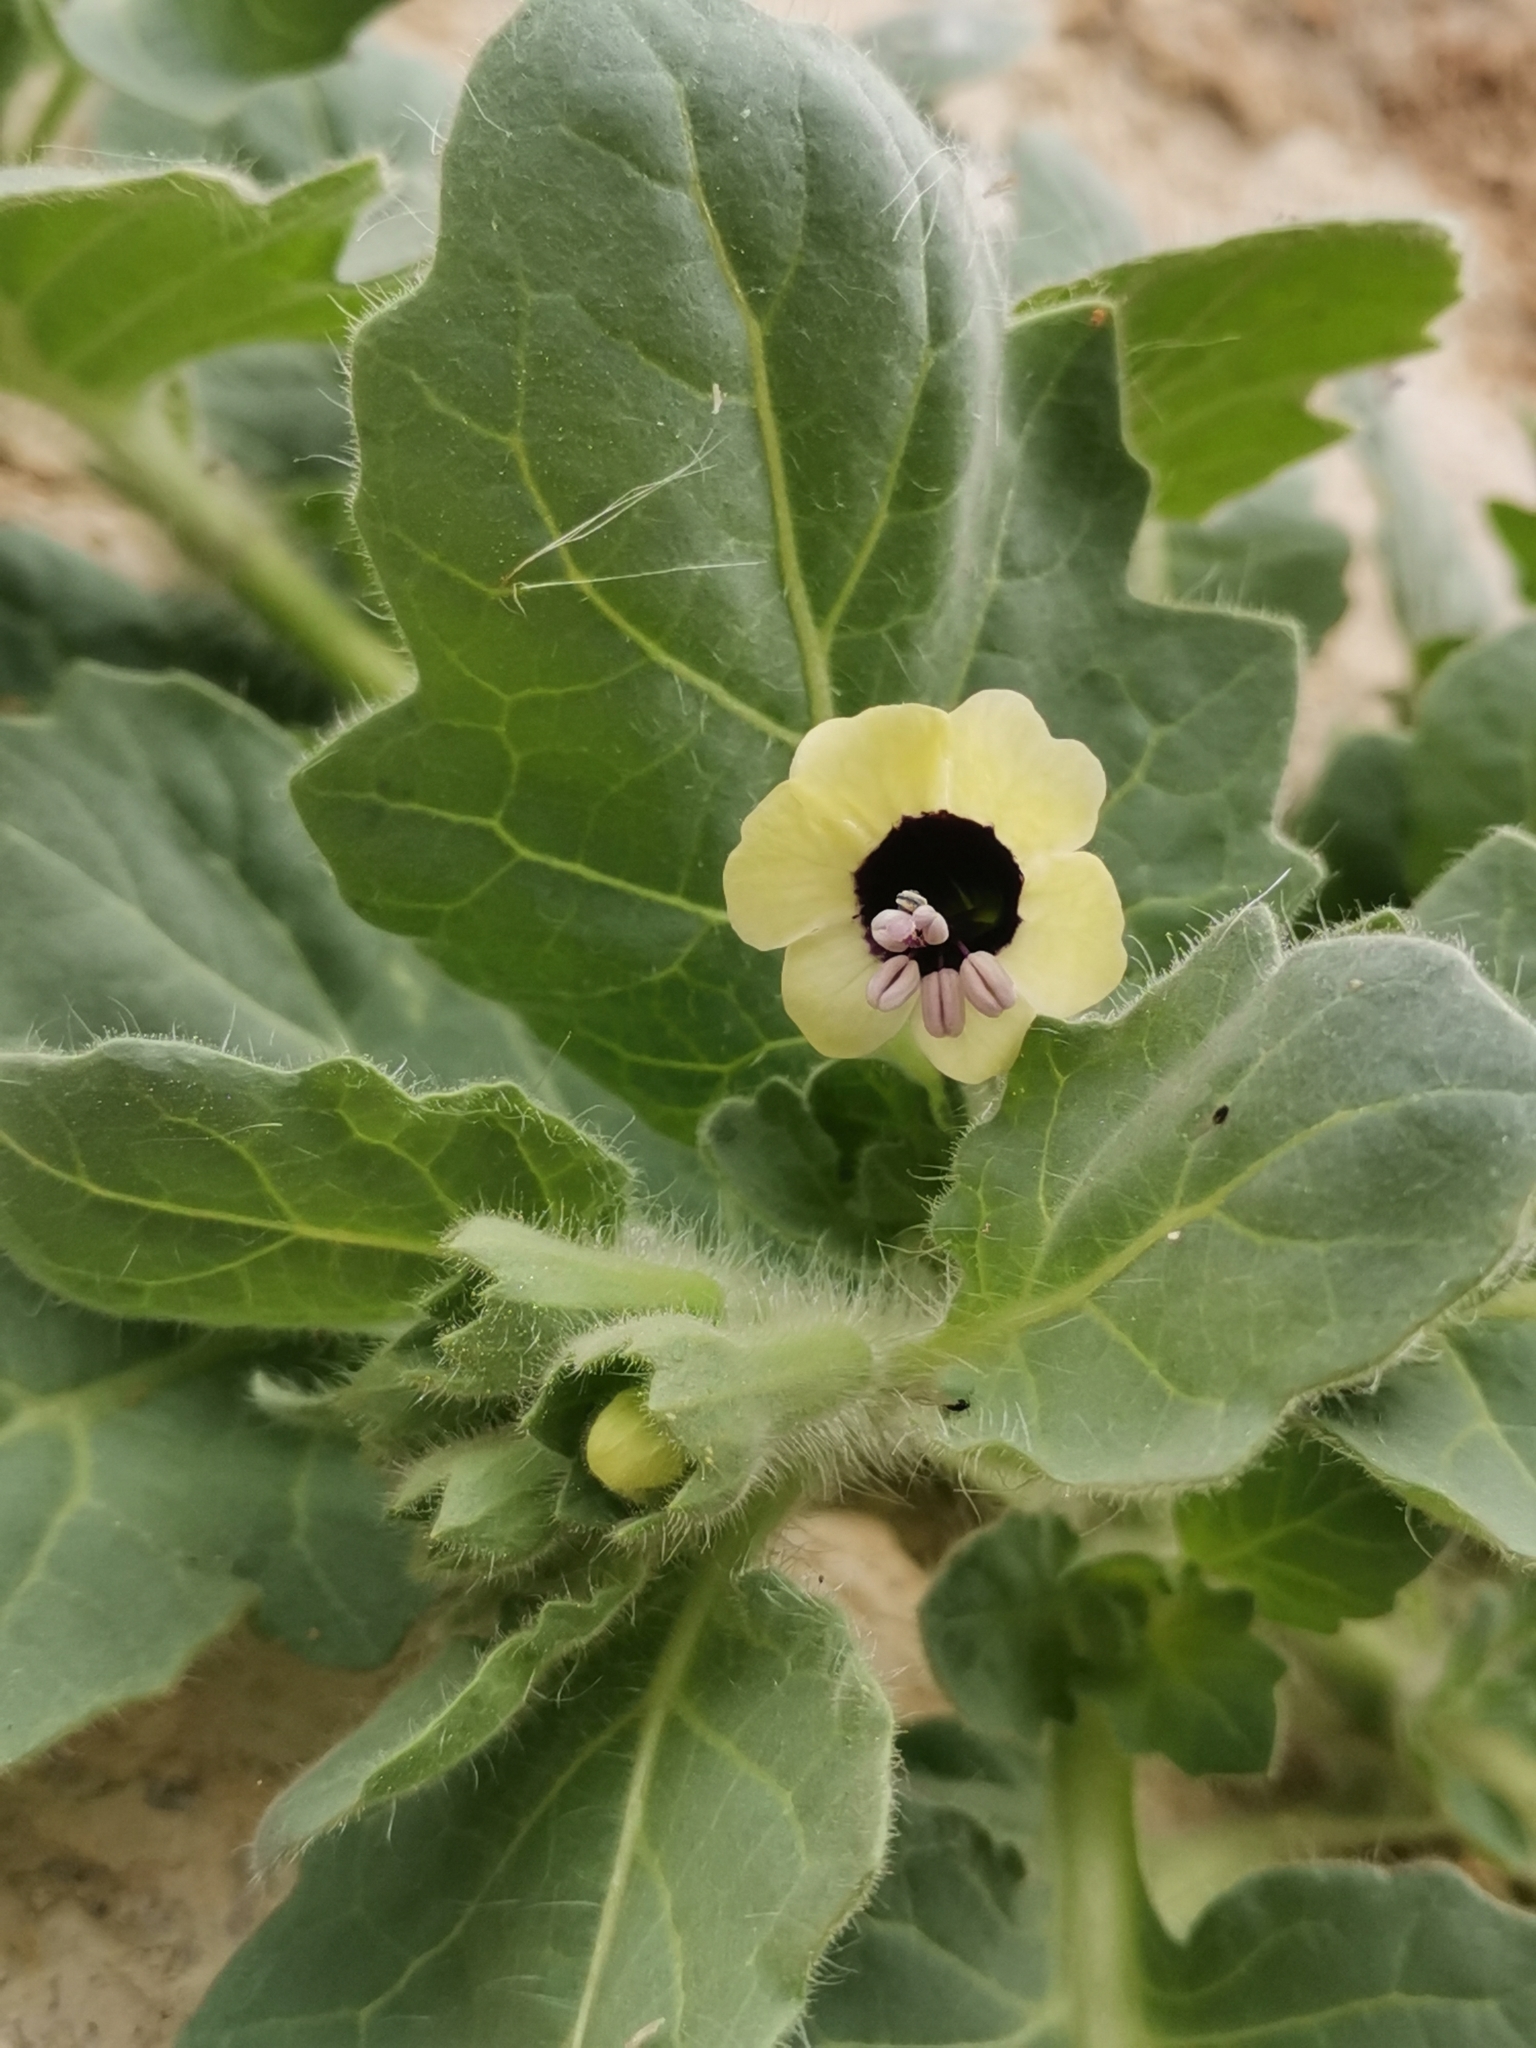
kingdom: Plantae
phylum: Tracheophyta
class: Magnoliopsida
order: Solanales
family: Solanaceae
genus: Hyoscyamus
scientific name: Hyoscyamus albus
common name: White henbane
